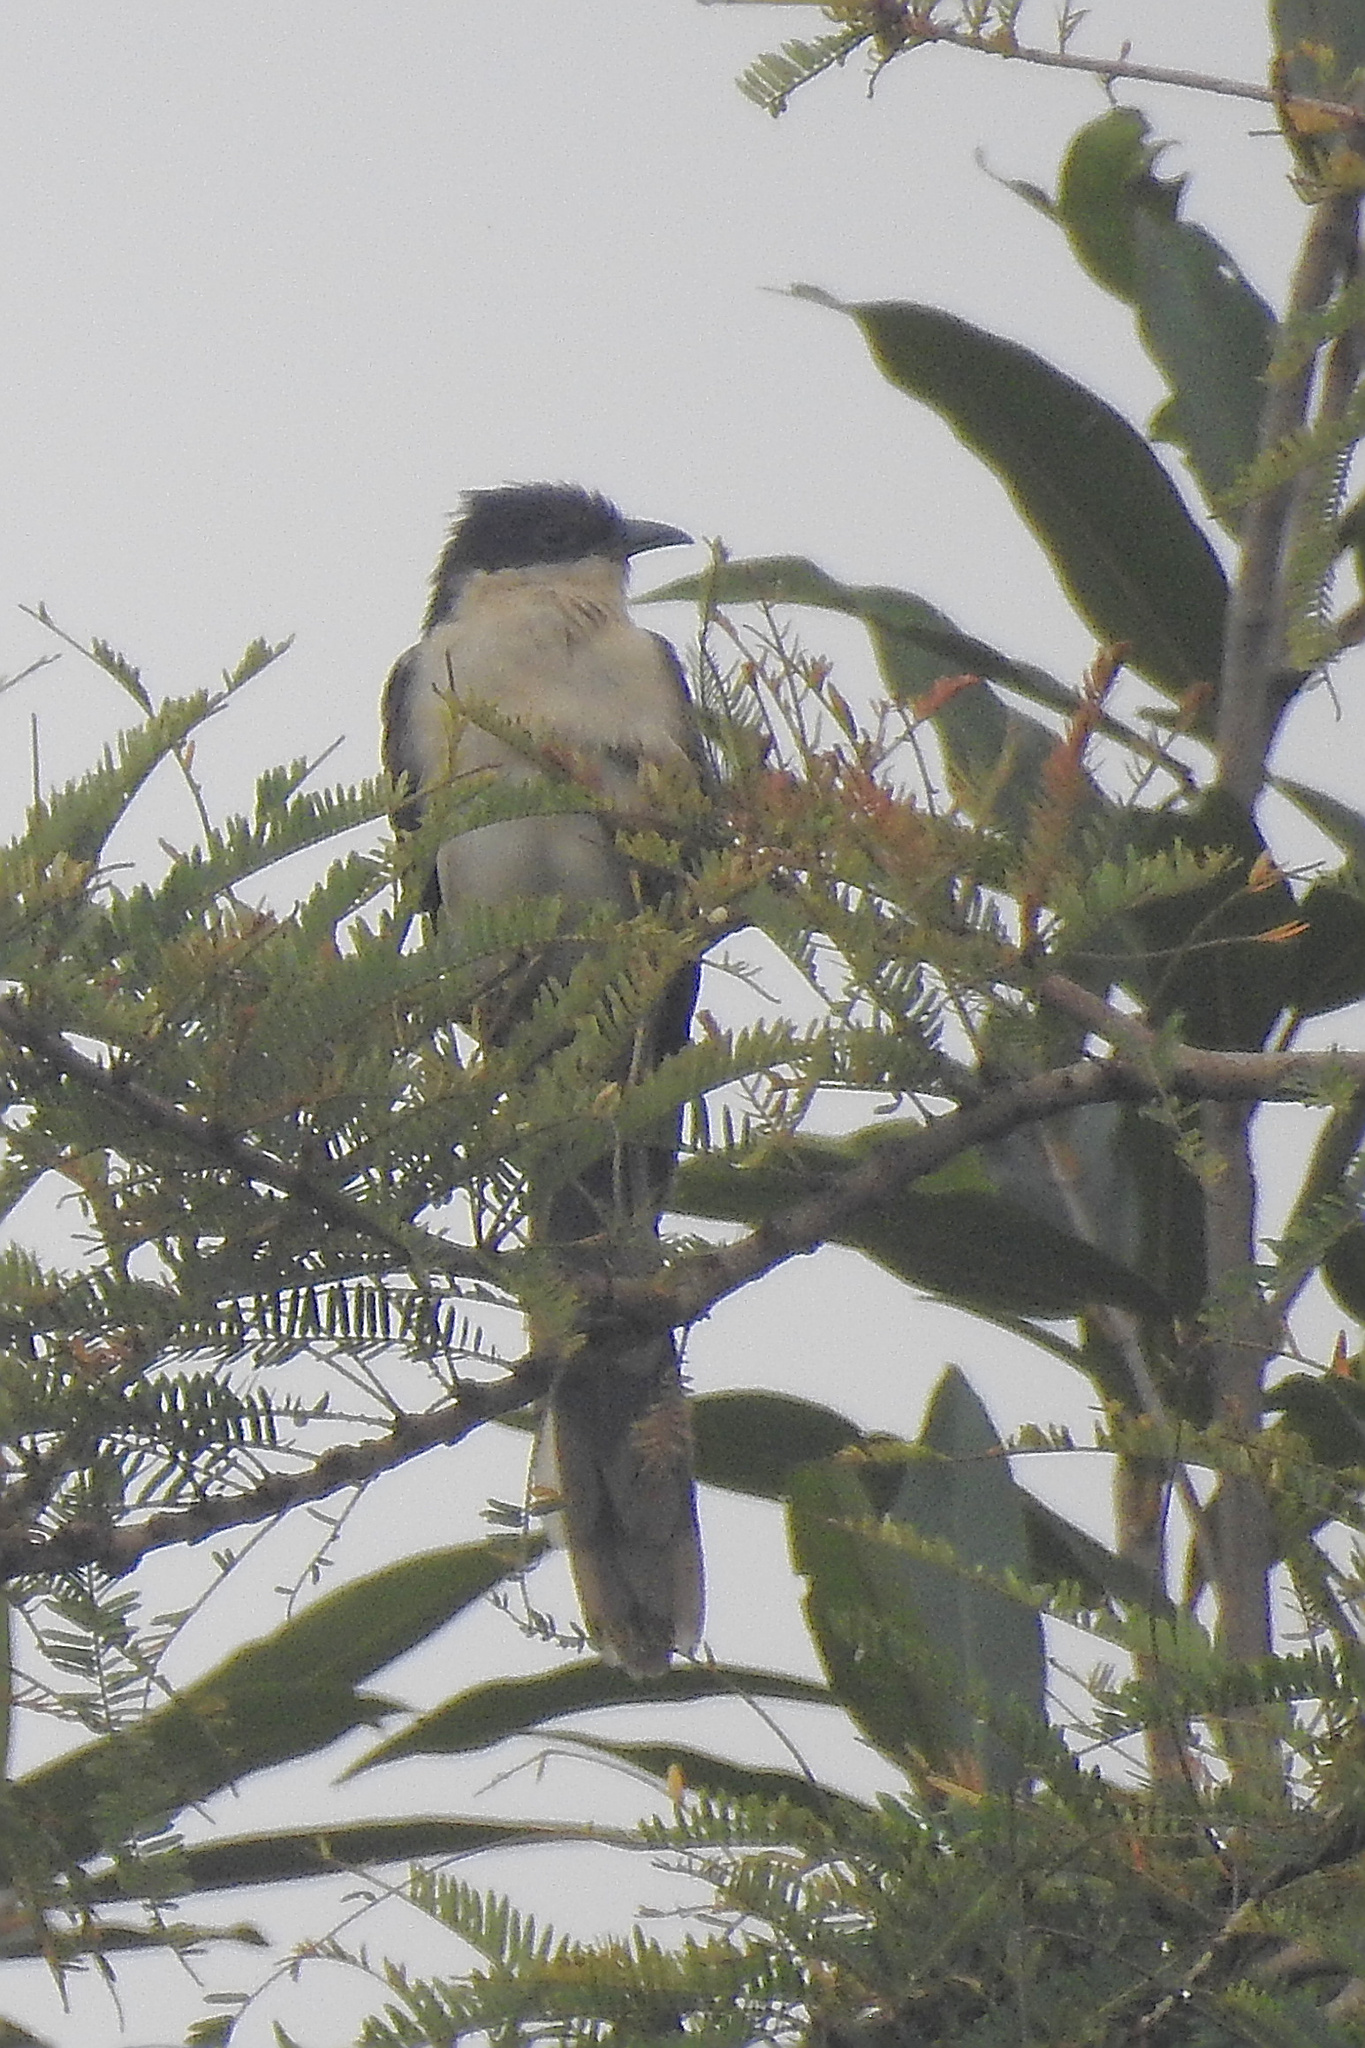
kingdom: Animalia
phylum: Chordata
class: Aves
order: Cuculiformes
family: Cuculidae
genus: Clamator
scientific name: Clamator jacobinus
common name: Jacobin cuckoo
